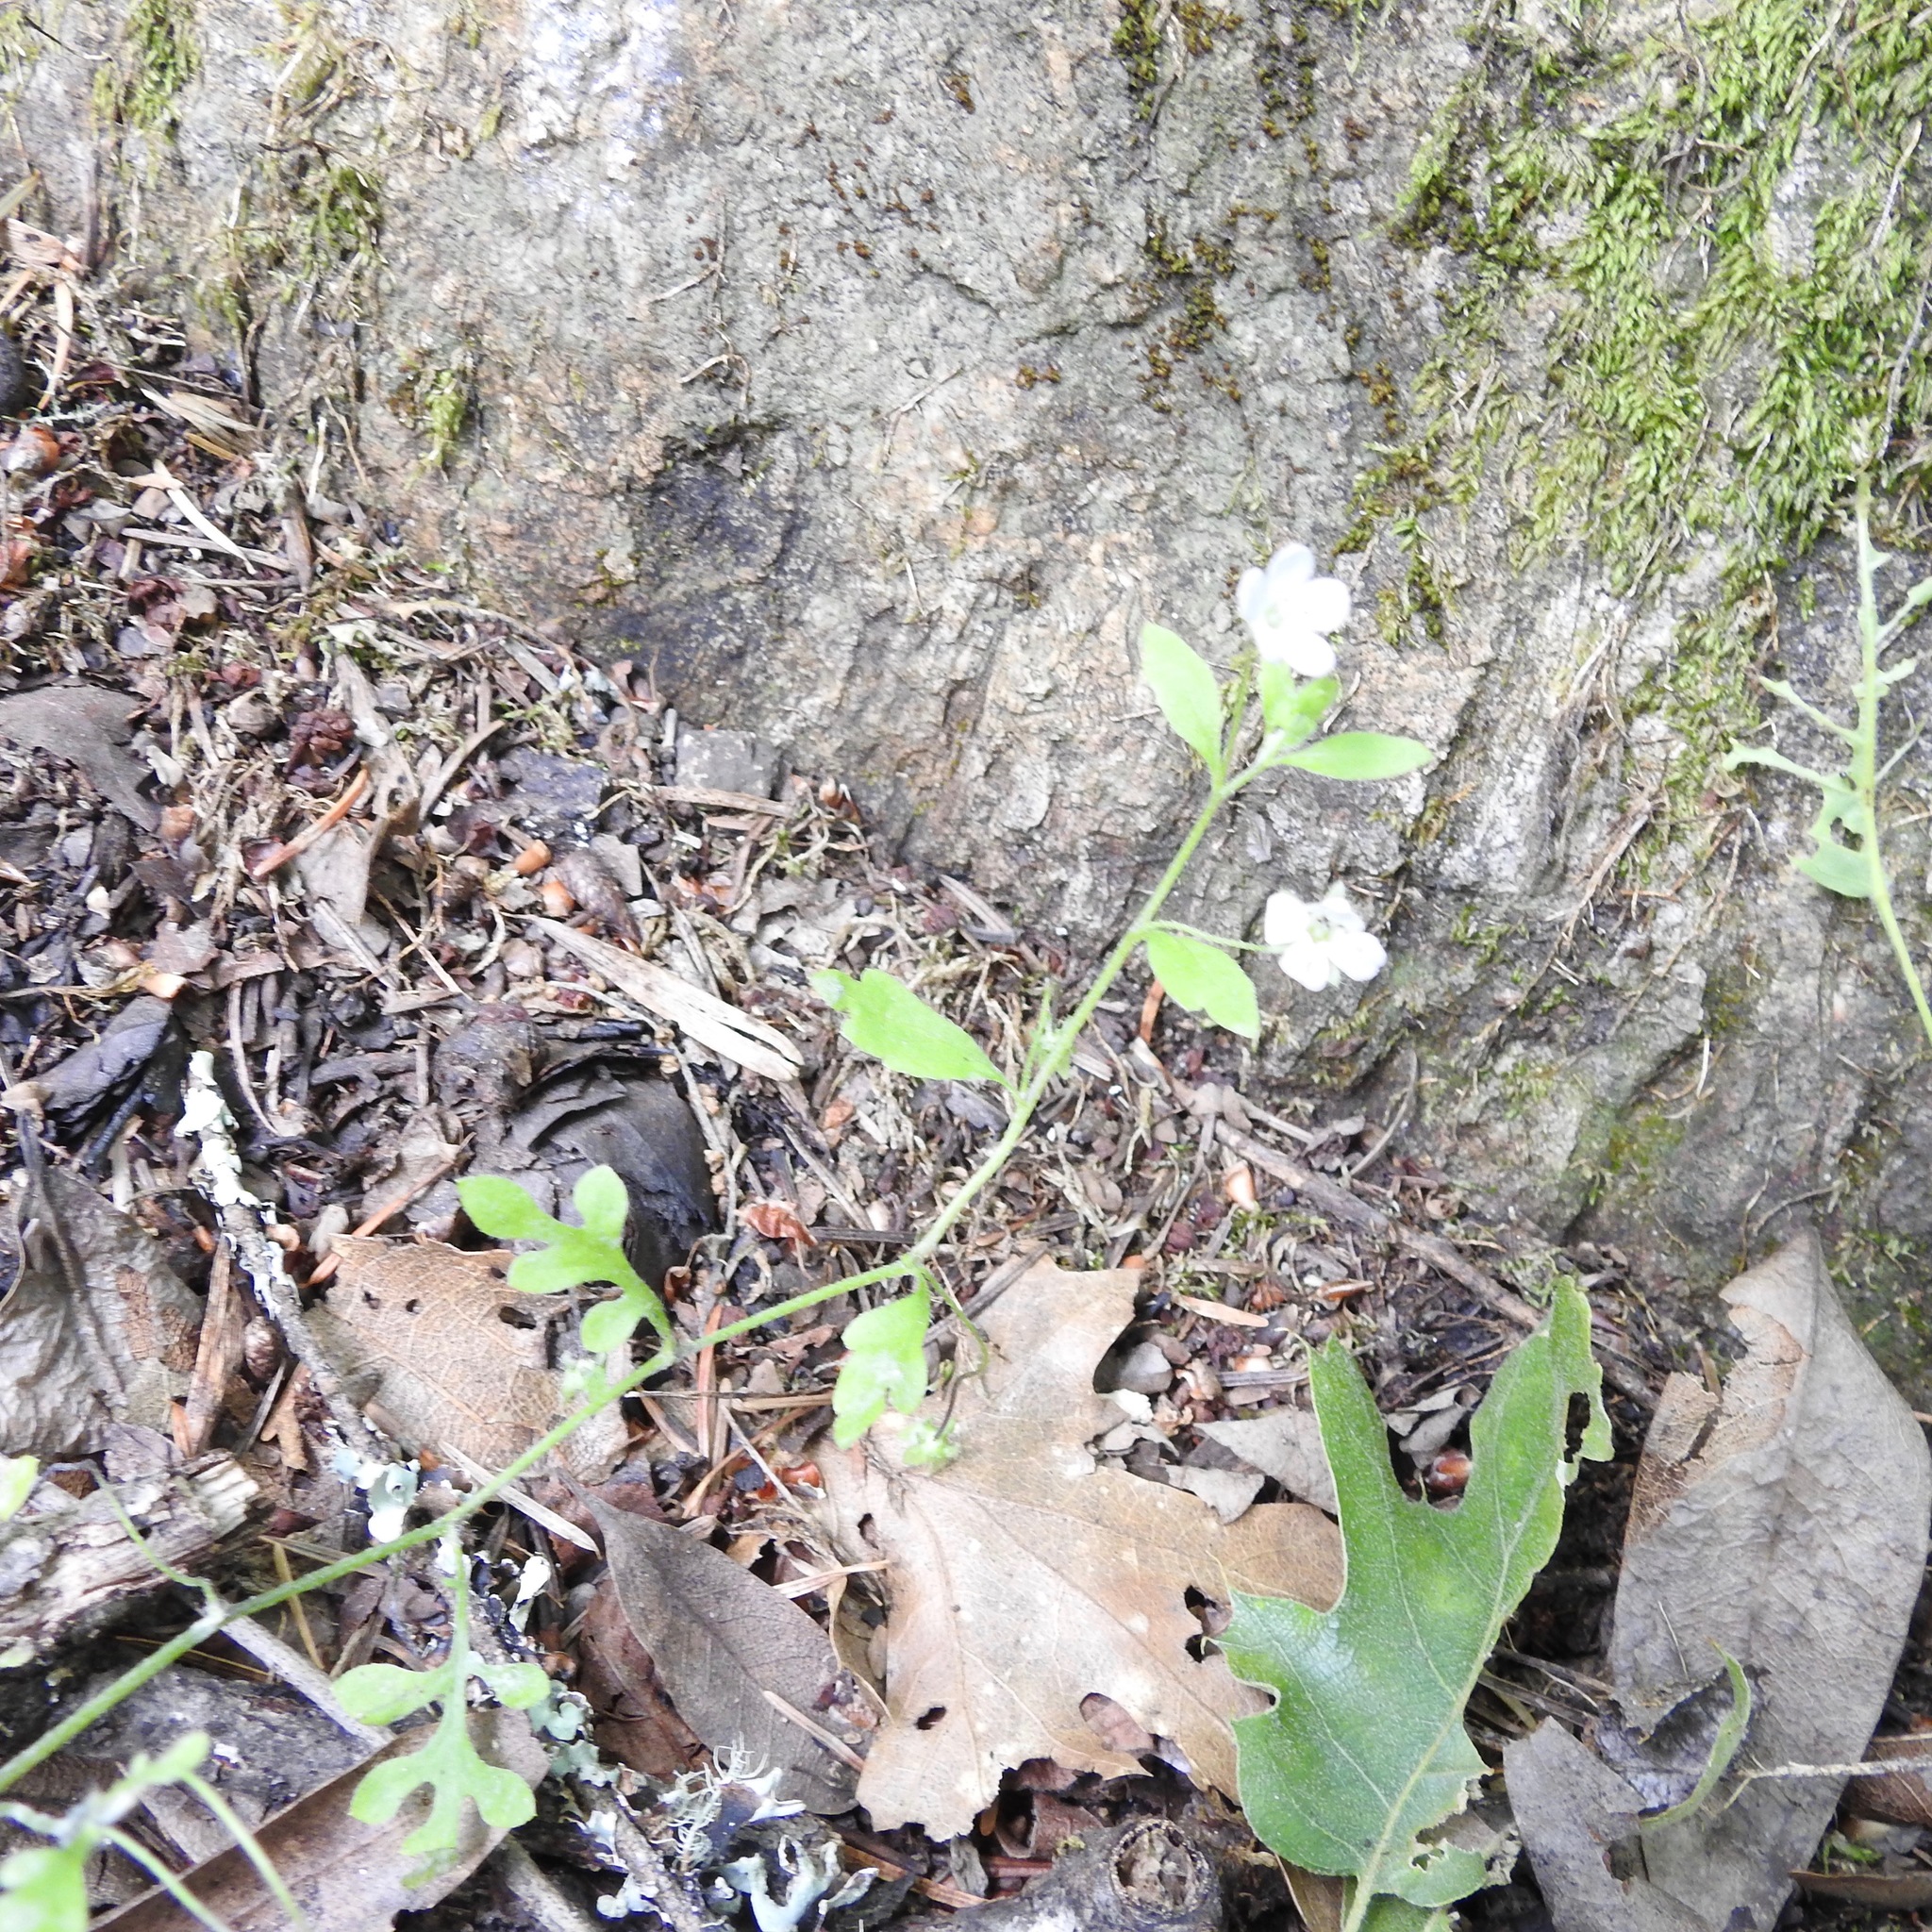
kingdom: Plantae
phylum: Tracheophyta
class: Magnoliopsida
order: Boraginales
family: Hydrophyllaceae
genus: Nemophila
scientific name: Nemophila heterophylla
